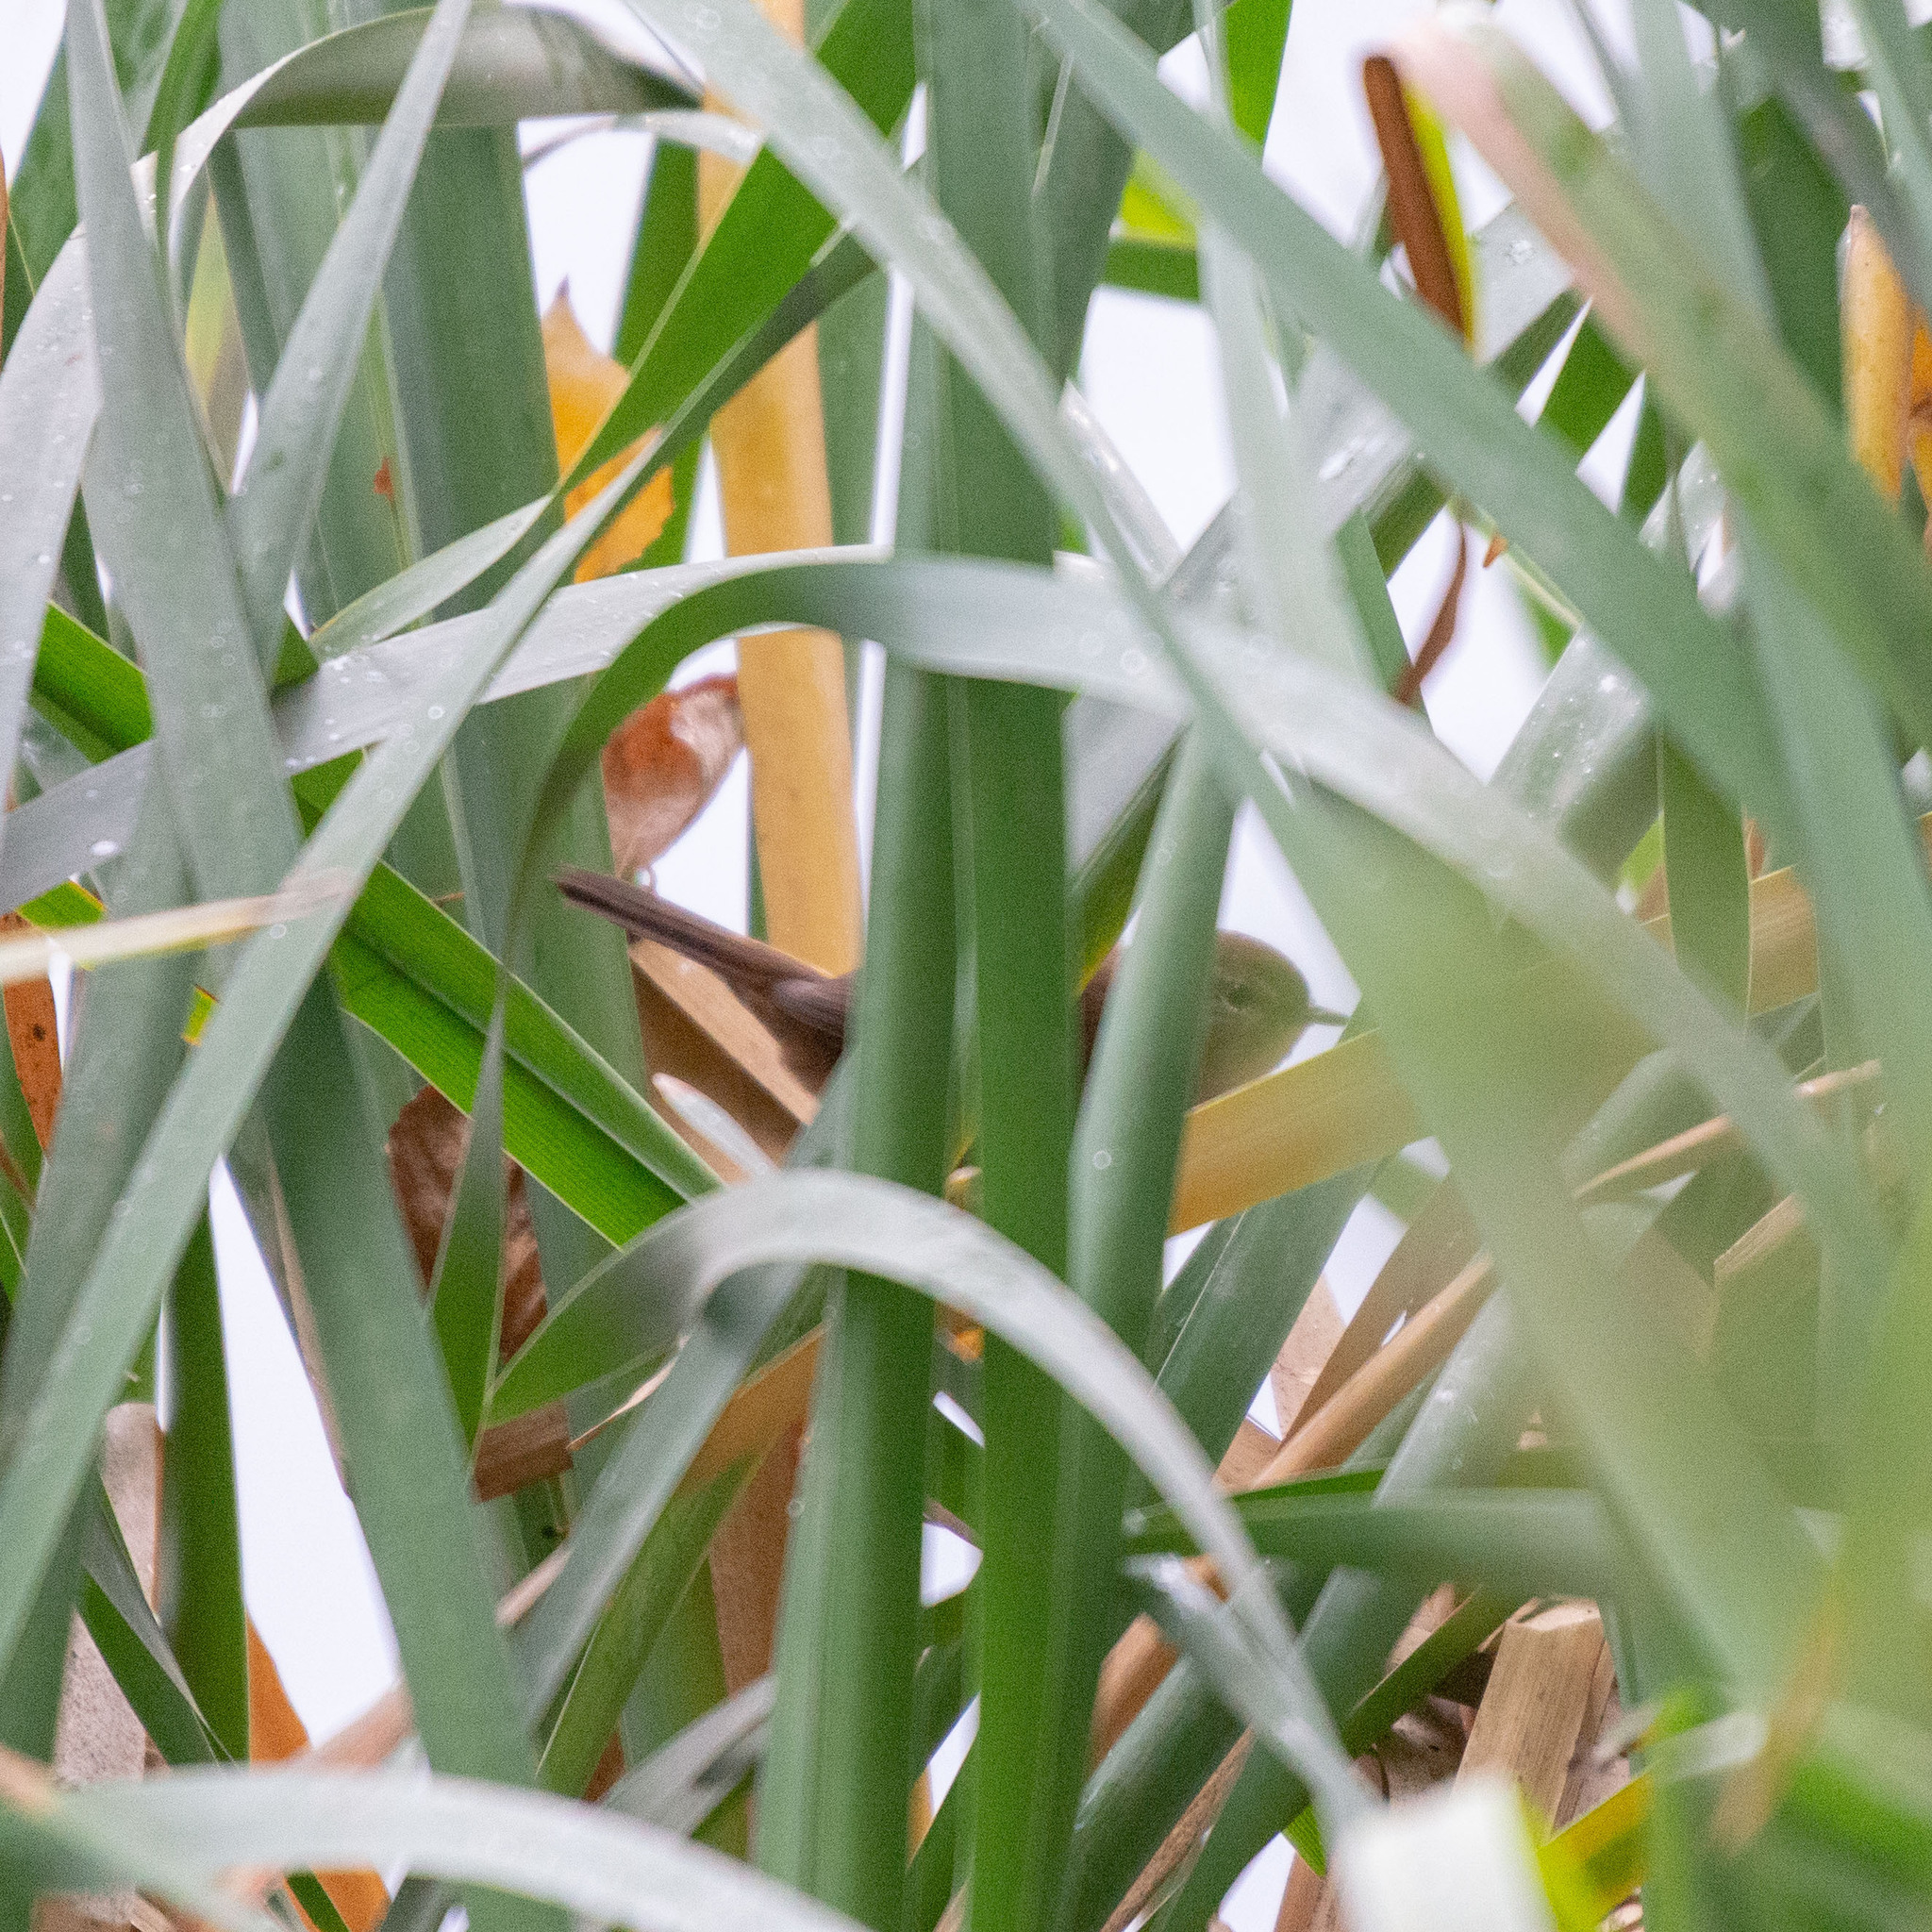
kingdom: Animalia
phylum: Chordata
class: Aves
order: Passeriformes
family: Cettiidae
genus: Cettia
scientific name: Cettia cetti
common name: Cetti's warbler
